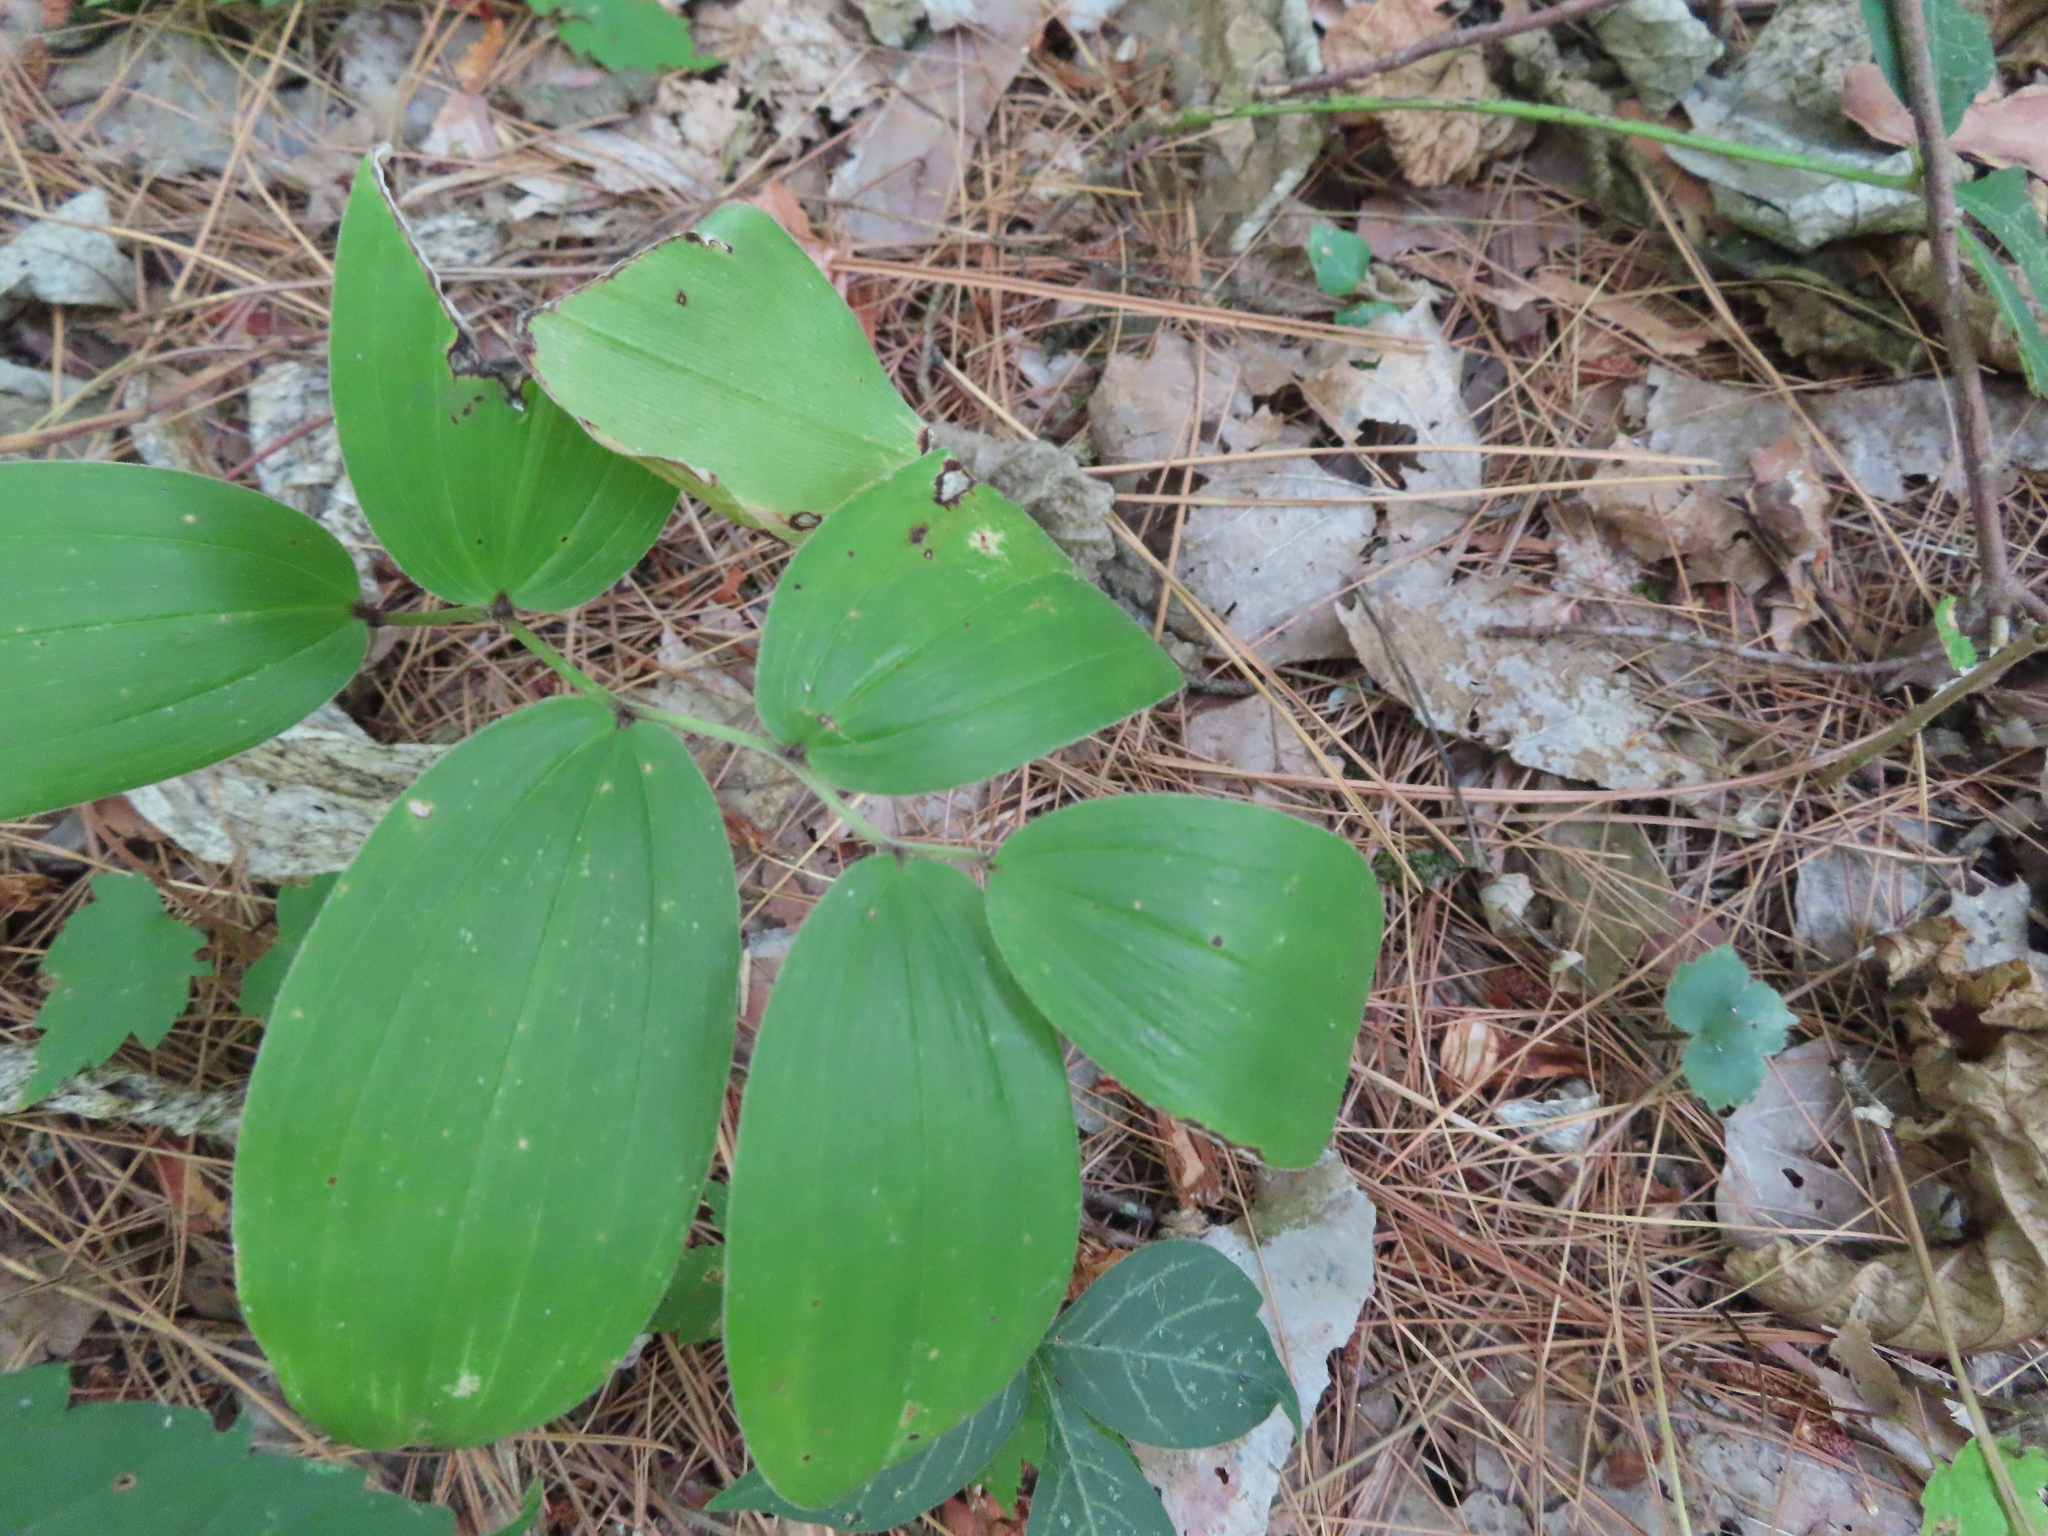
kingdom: Plantae
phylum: Tracheophyta
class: Liliopsida
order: Asparagales
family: Asparagaceae
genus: Maianthemum
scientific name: Maianthemum racemosum
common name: False spikenard
